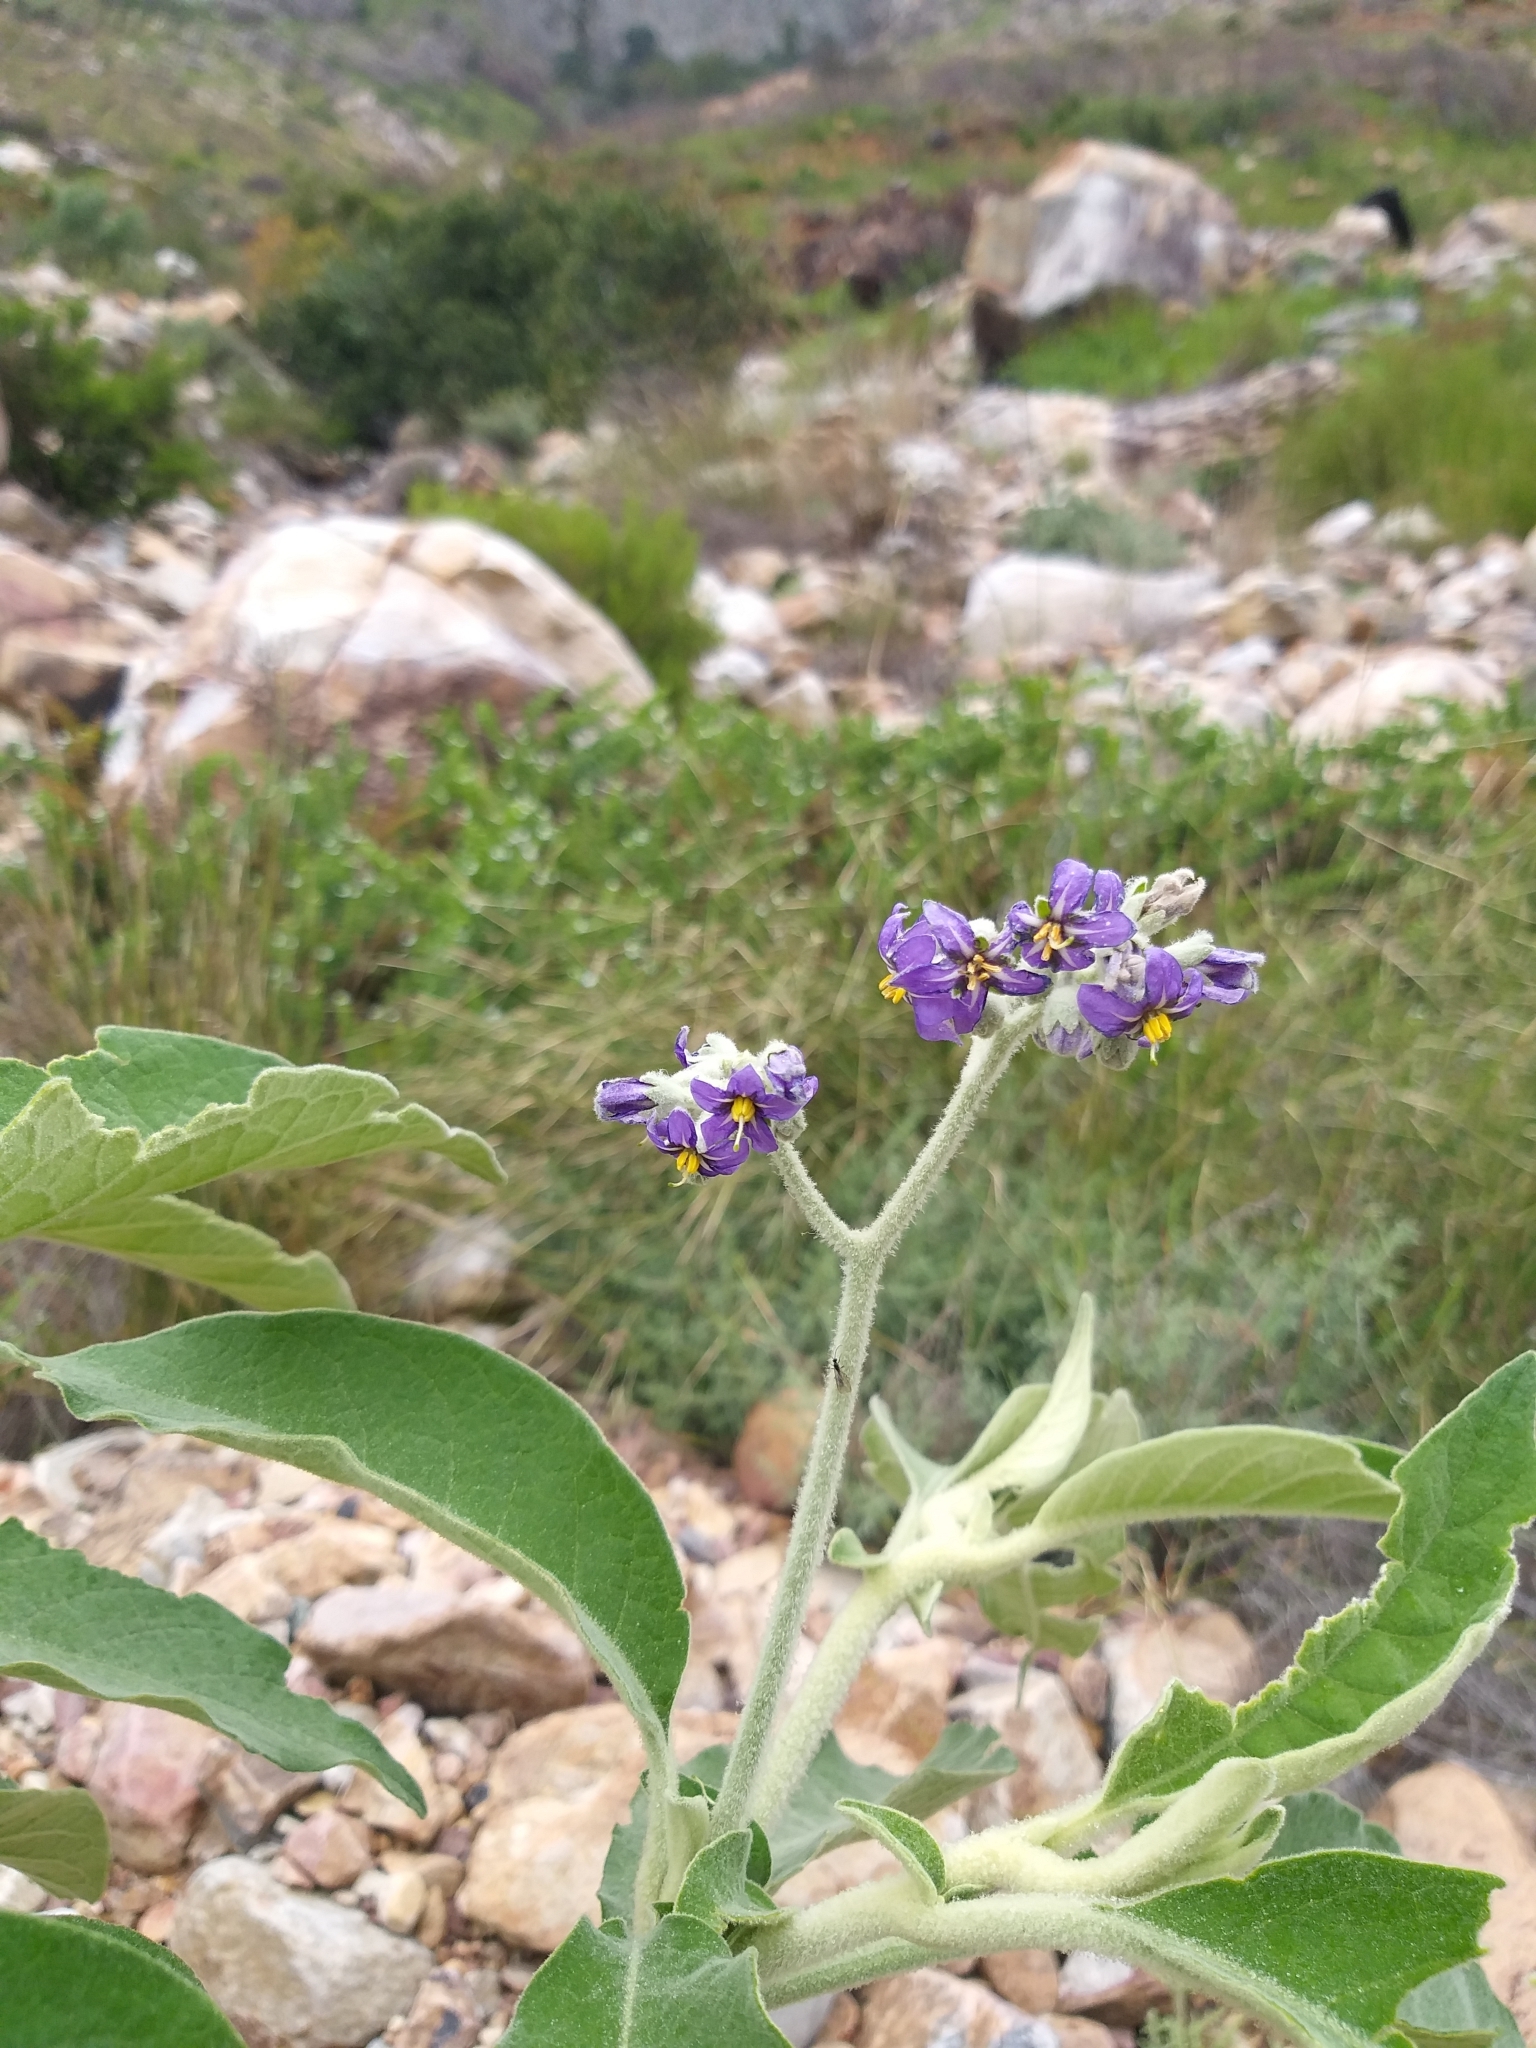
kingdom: Plantae
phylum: Tracheophyta
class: Magnoliopsida
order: Solanales
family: Solanaceae
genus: Solanum
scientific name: Solanum mauritianum
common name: Earleaf nightshade
